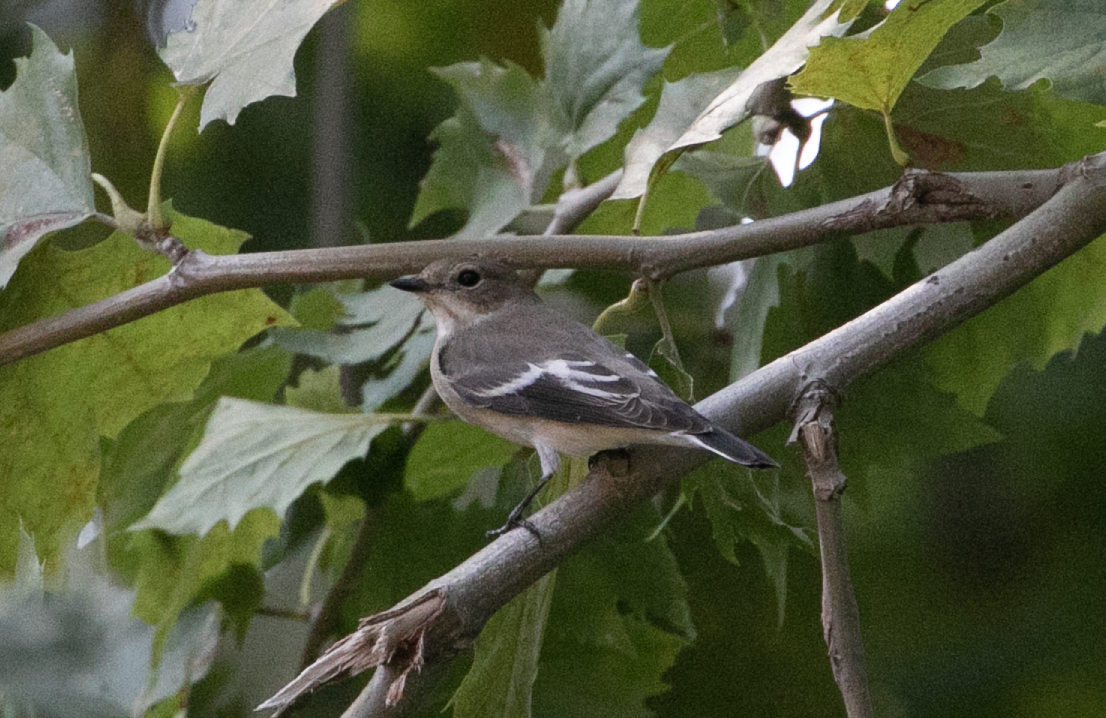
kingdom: Animalia
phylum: Chordata
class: Aves
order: Passeriformes
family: Muscicapidae
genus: Ficedula
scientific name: Ficedula hypoleuca
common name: European pied flycatcher
